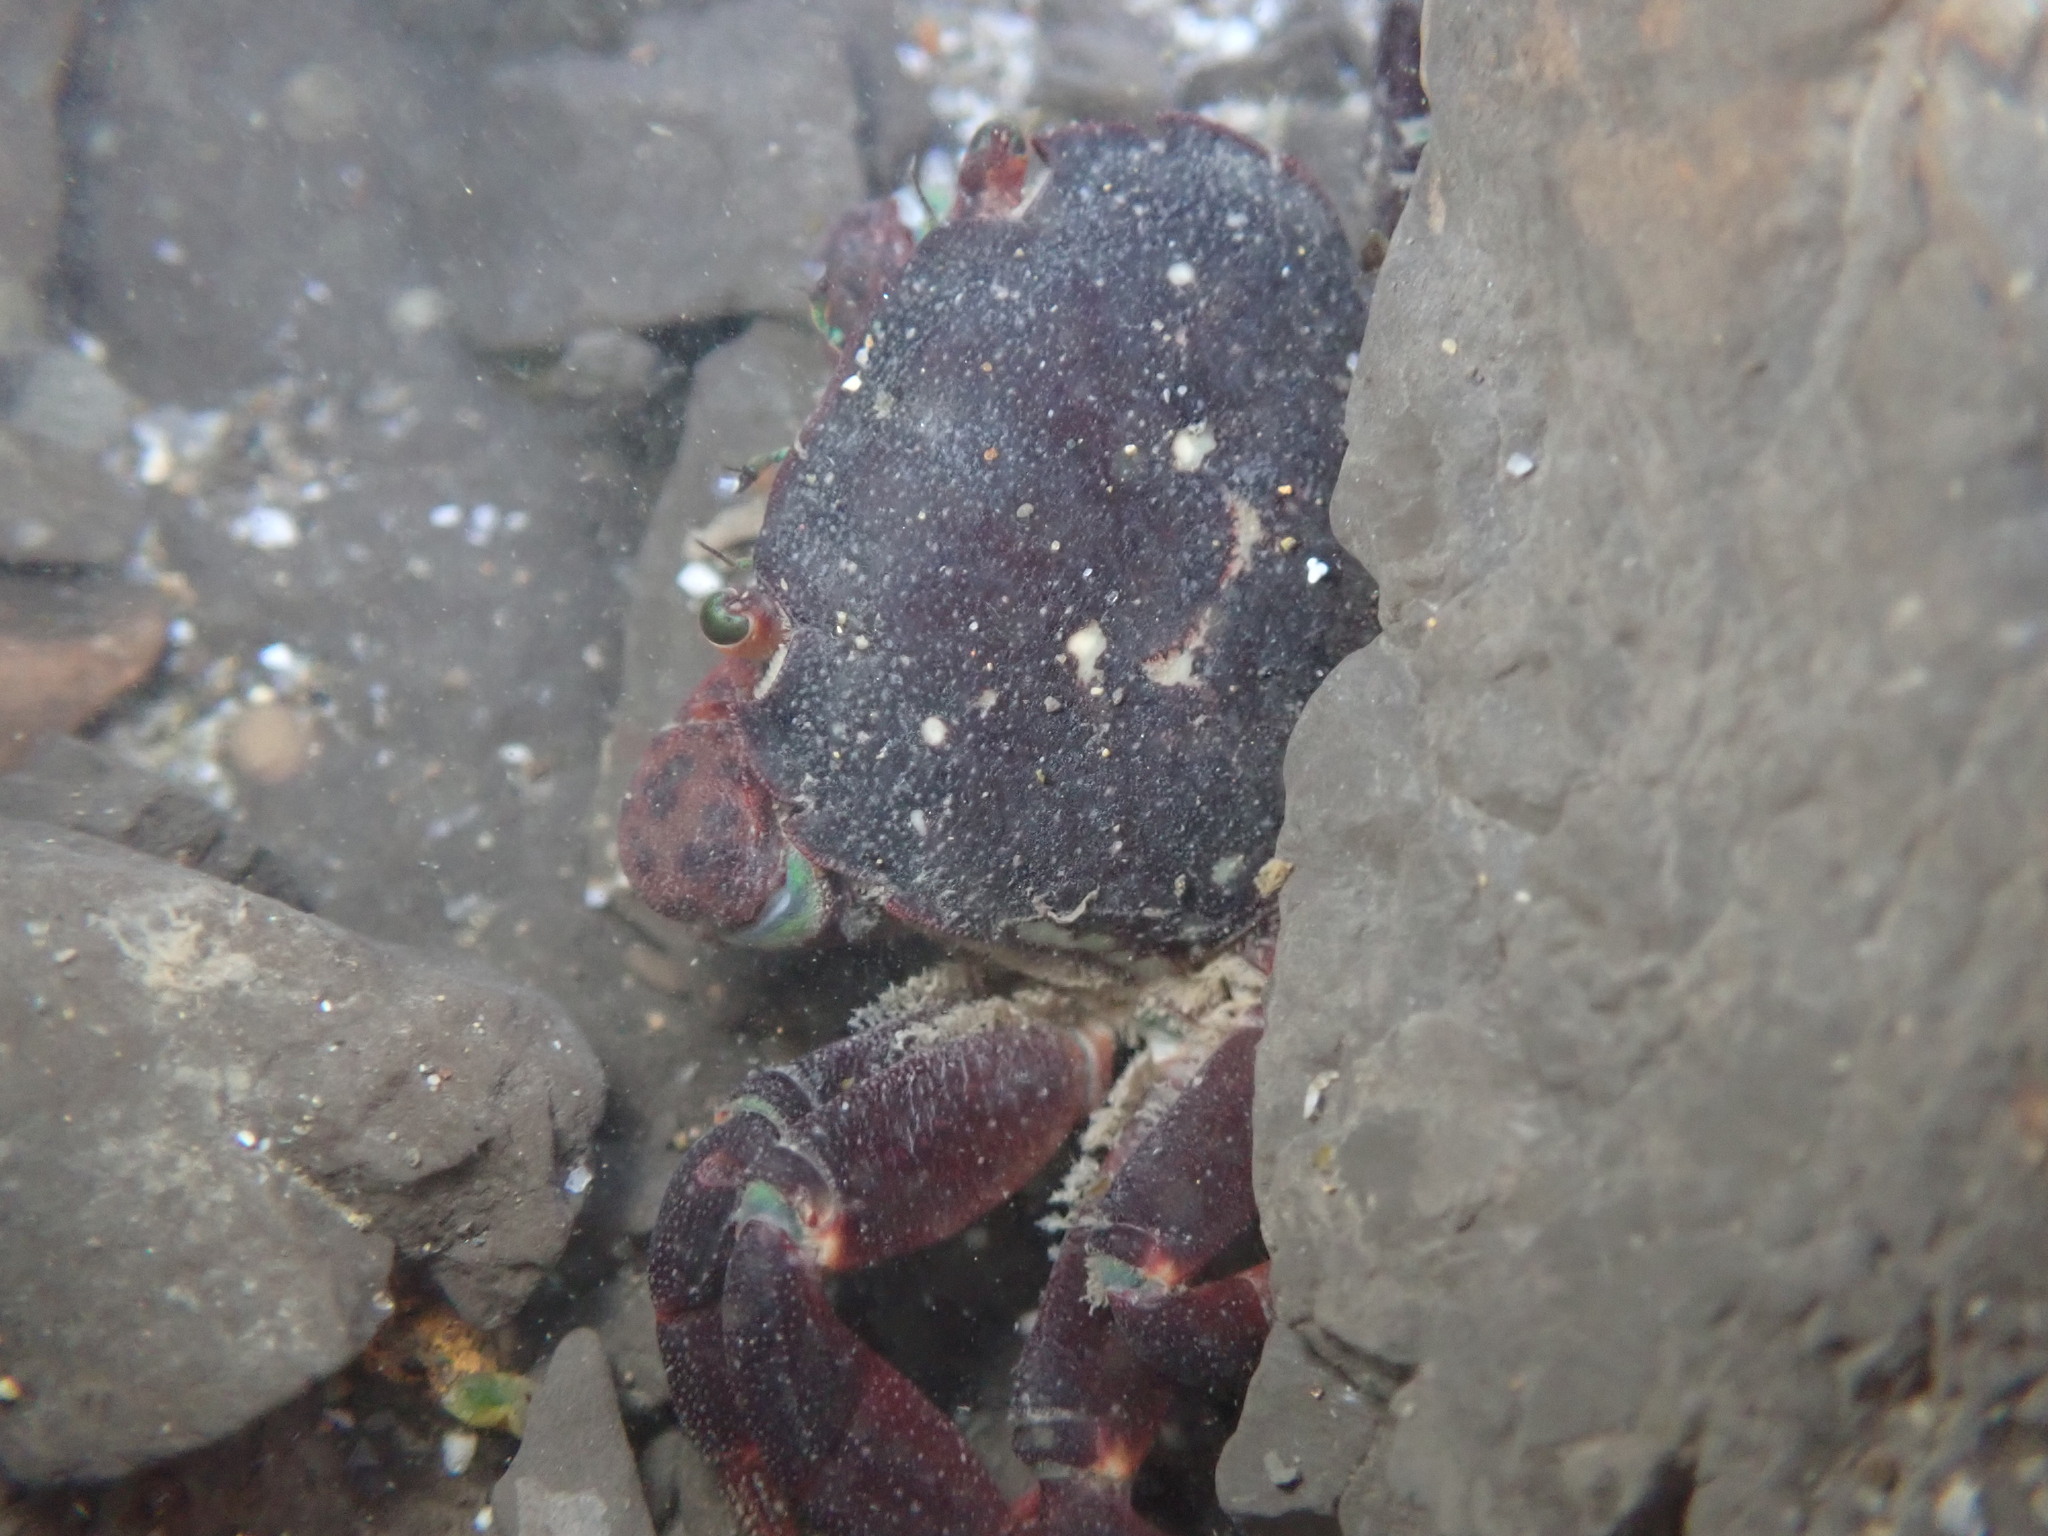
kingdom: Animalia
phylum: Arthropoda
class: Malacostraca
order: Decapoda
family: Varunidae
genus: Hemigrapsus
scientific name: Hemigrapsus nudus
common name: Purple shore crab
